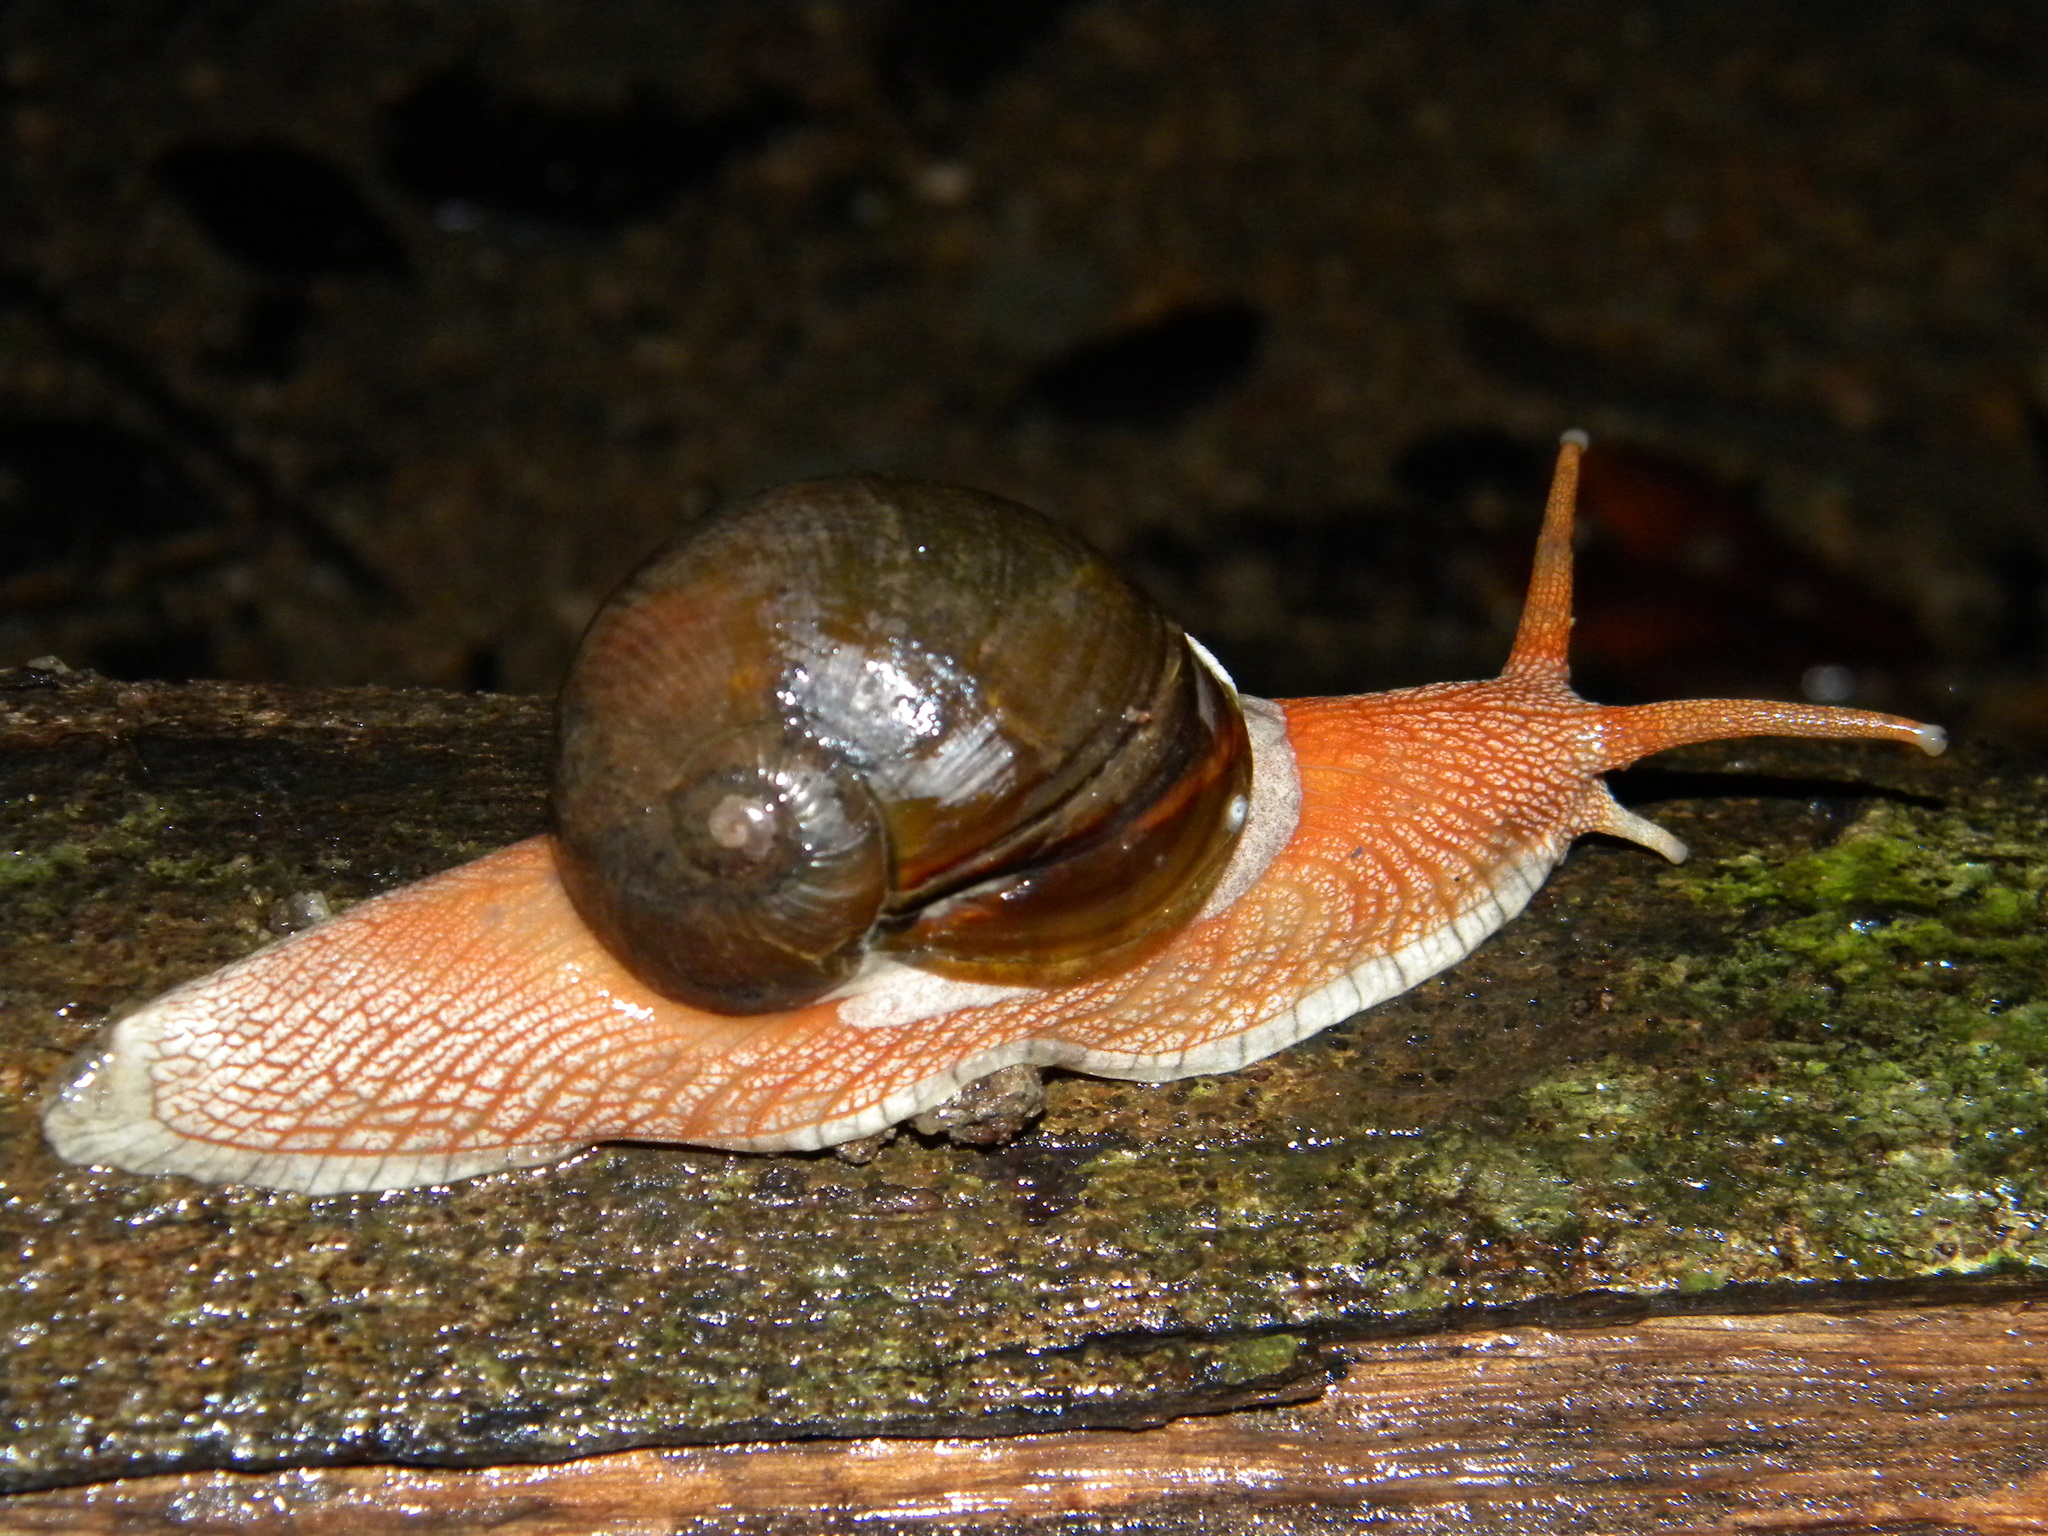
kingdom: Animalia
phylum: Mollusca
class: Gastropoda
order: Stylommatophora
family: Ariophantidae
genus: Indrella
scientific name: Indrella ampulla
